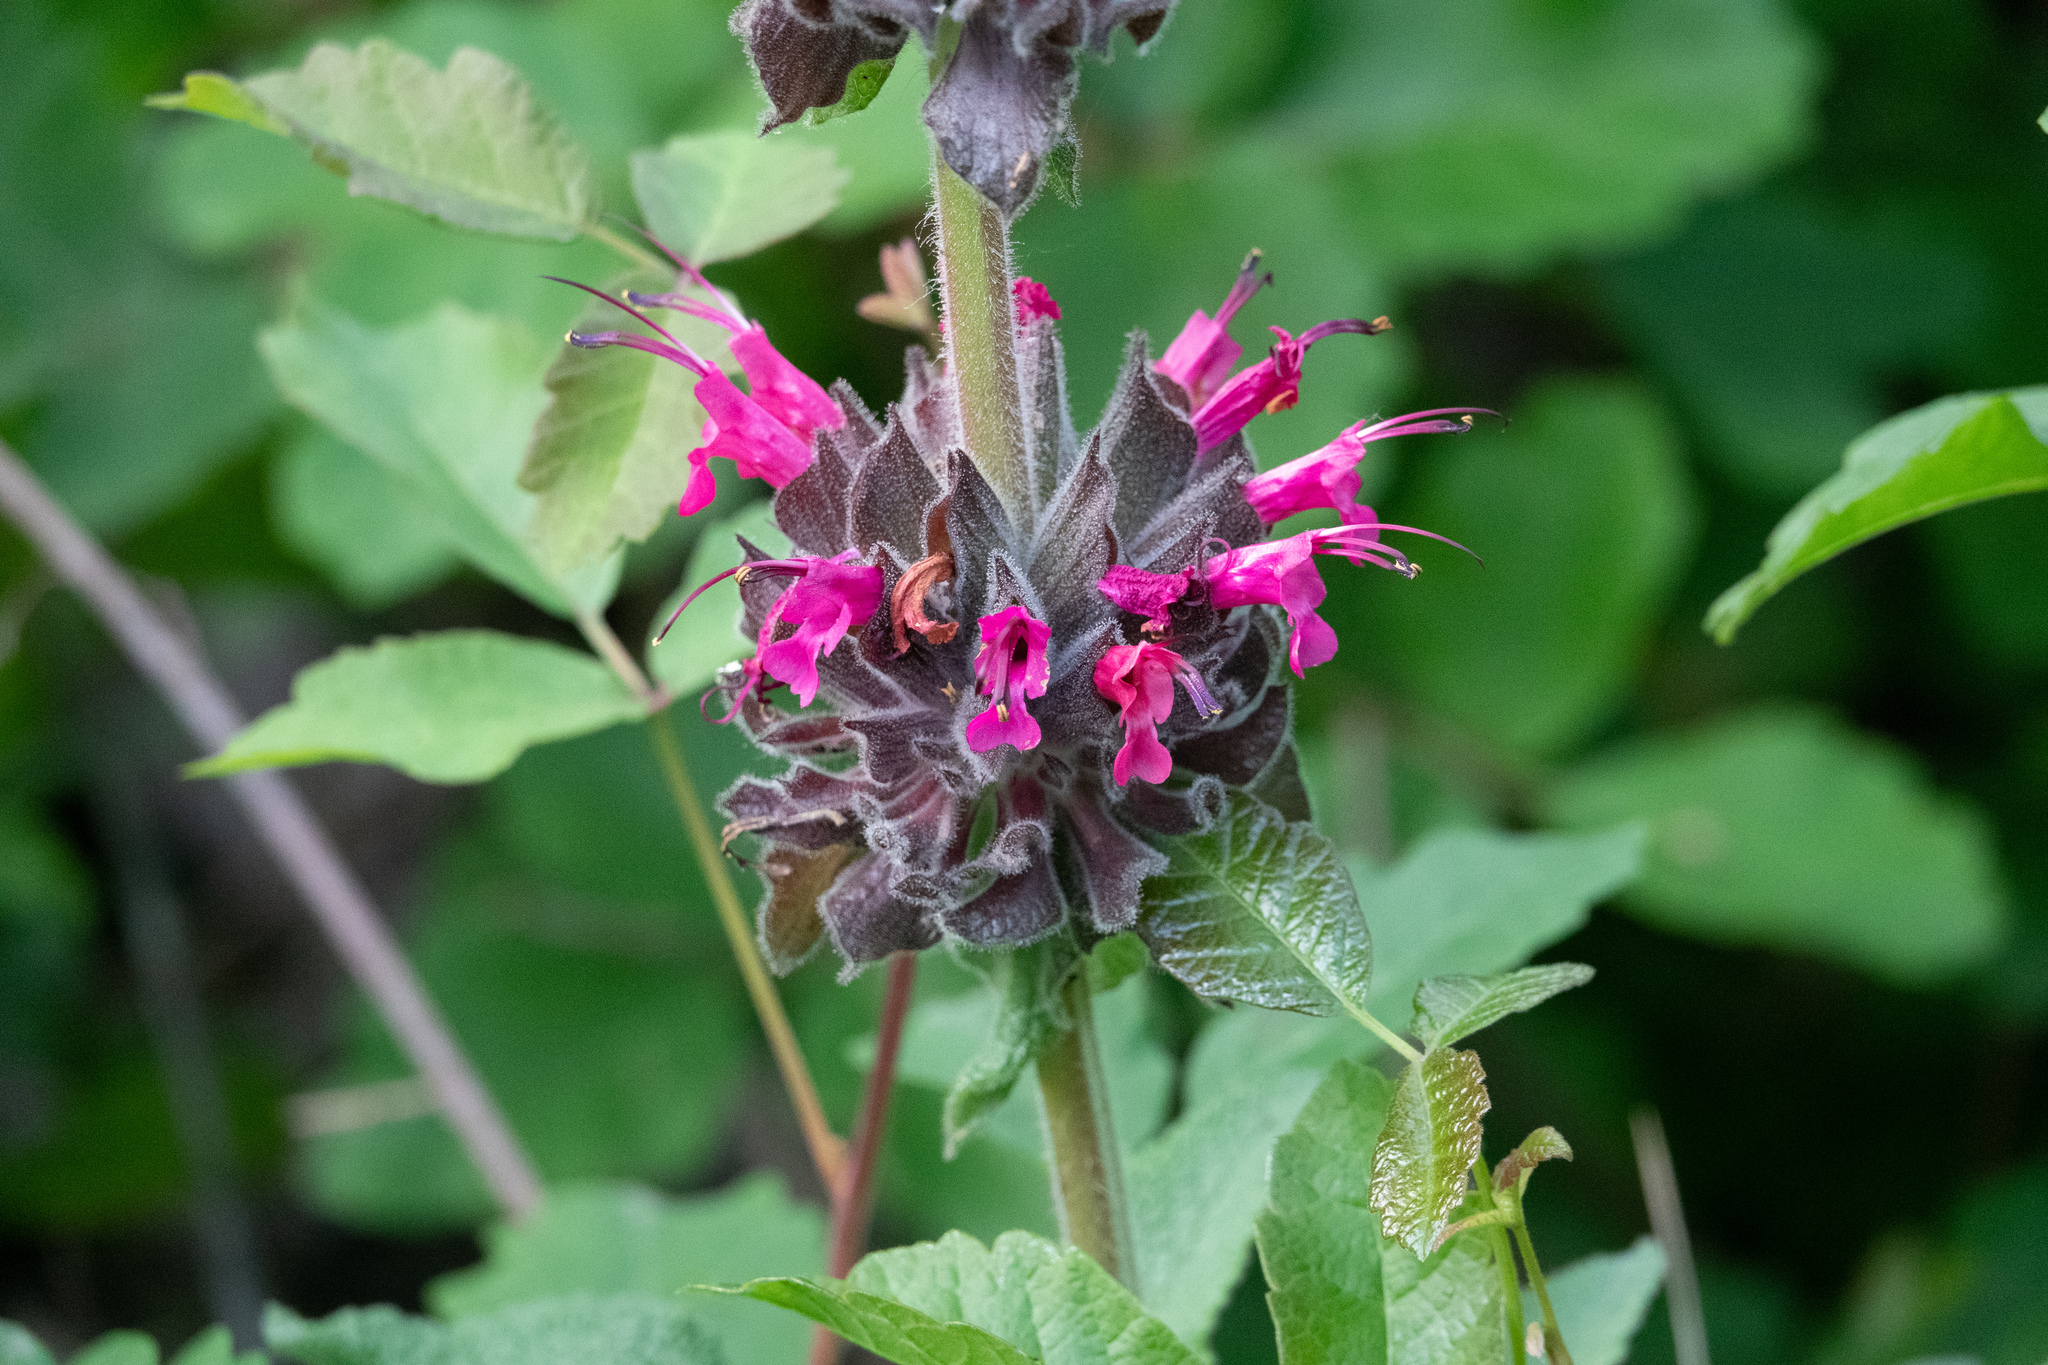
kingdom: Plantae
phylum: Tracheophyta
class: Magnoliopsida
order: Lamiales
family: Lamiaceae
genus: Salvia
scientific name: Salvia spathacea
